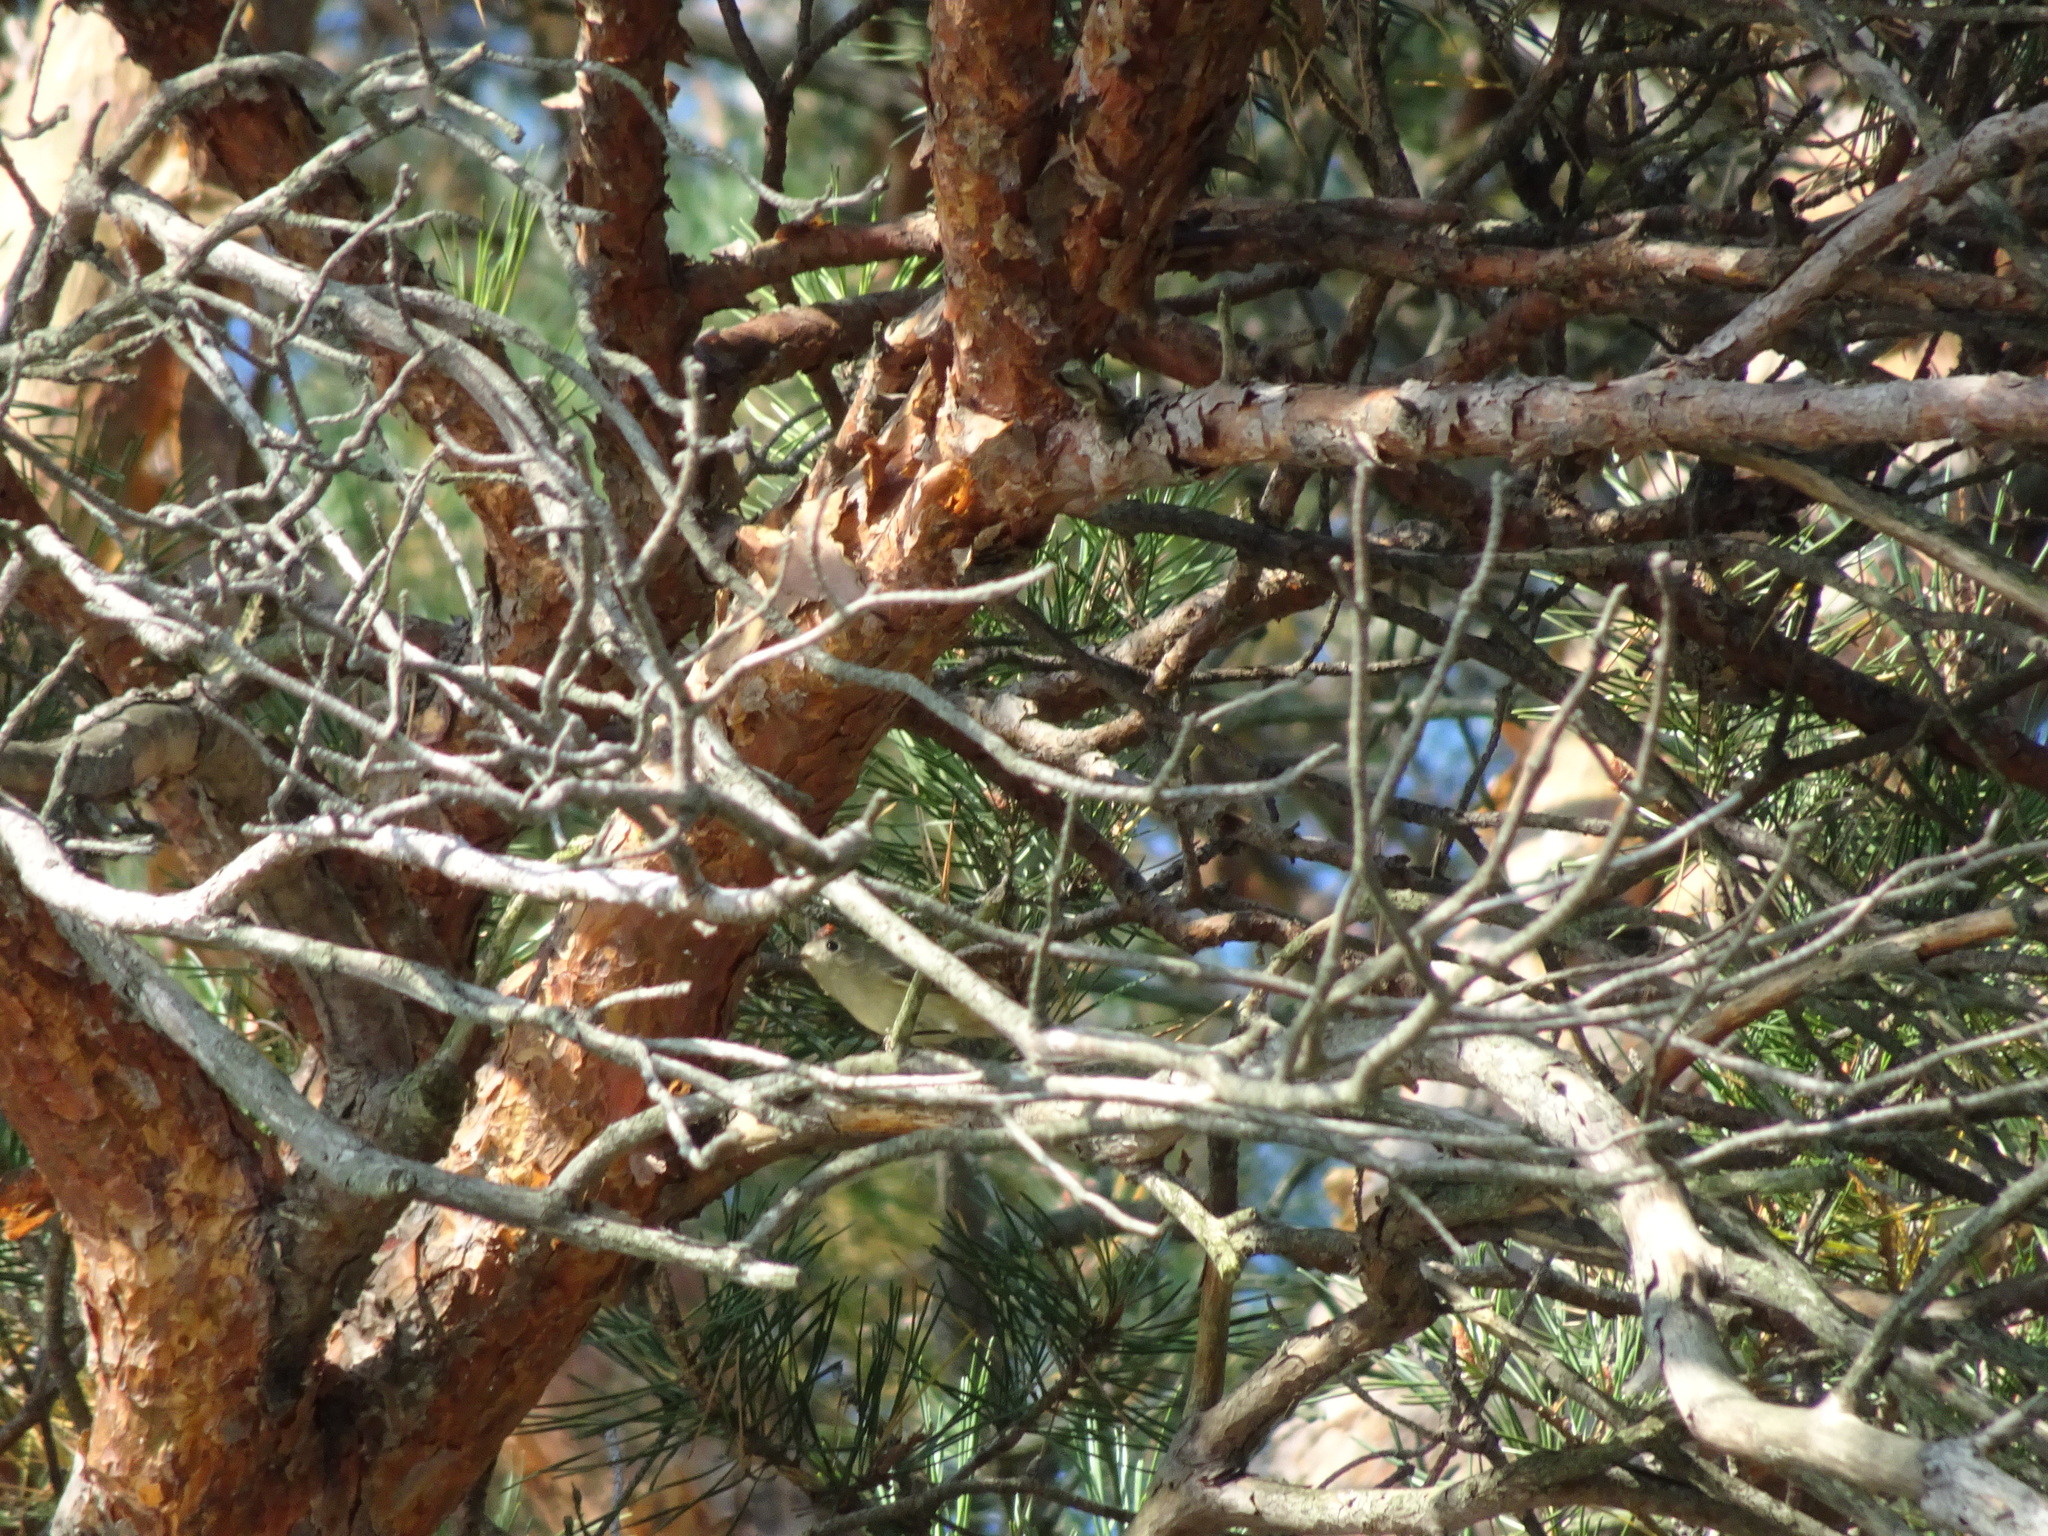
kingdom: Animalia
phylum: Chordata
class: Aves
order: Passeriformes
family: Regulidae
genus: Regulus
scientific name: Regulus calendula
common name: Ruby-crowned kinglet
